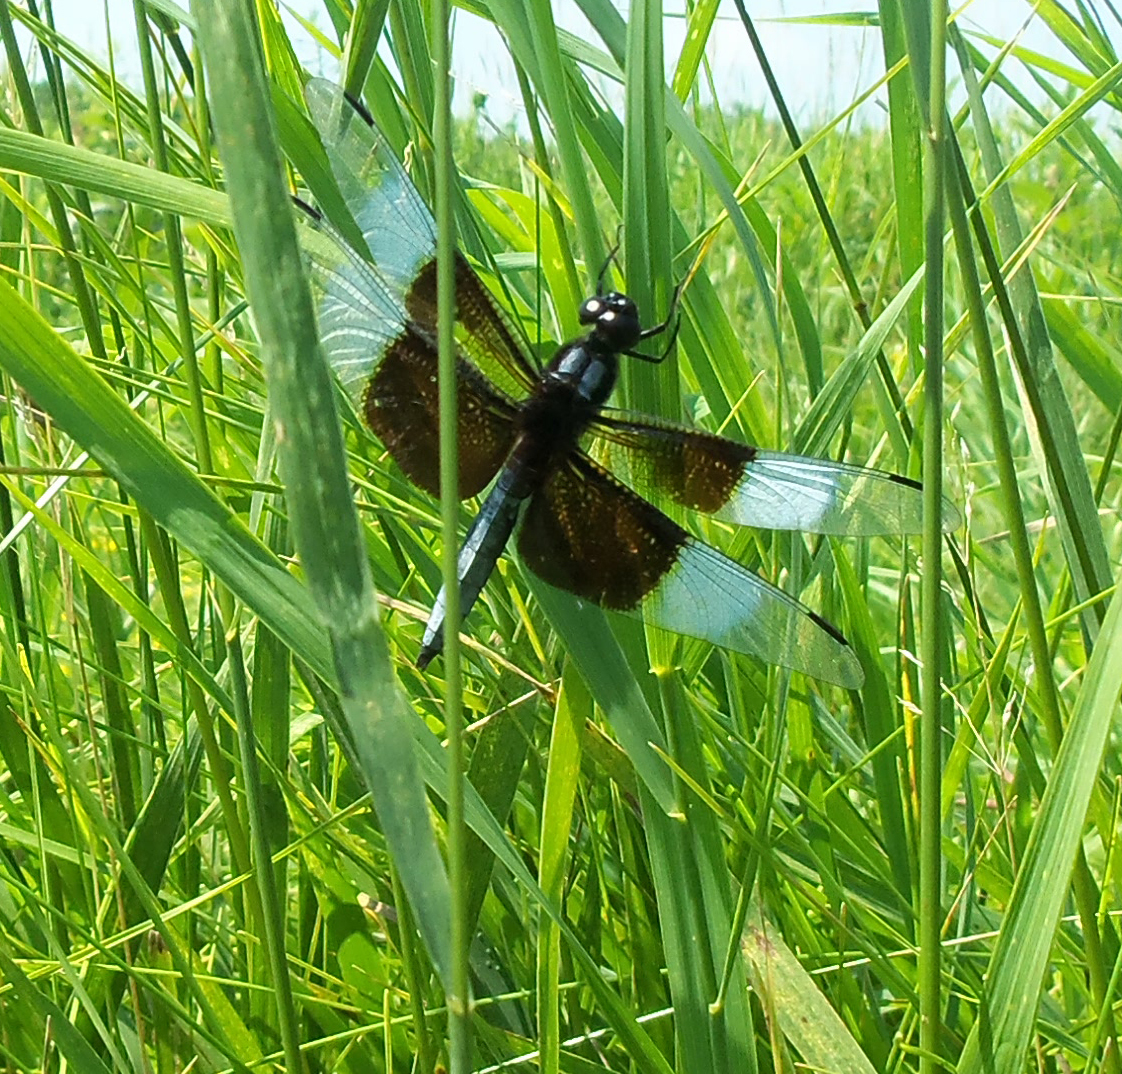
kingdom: Animalia
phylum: Arthropoda
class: Insecta
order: Odonata
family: Libellulidae
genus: Libellula
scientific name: Libellula luctuosa
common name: Widow skimmer
